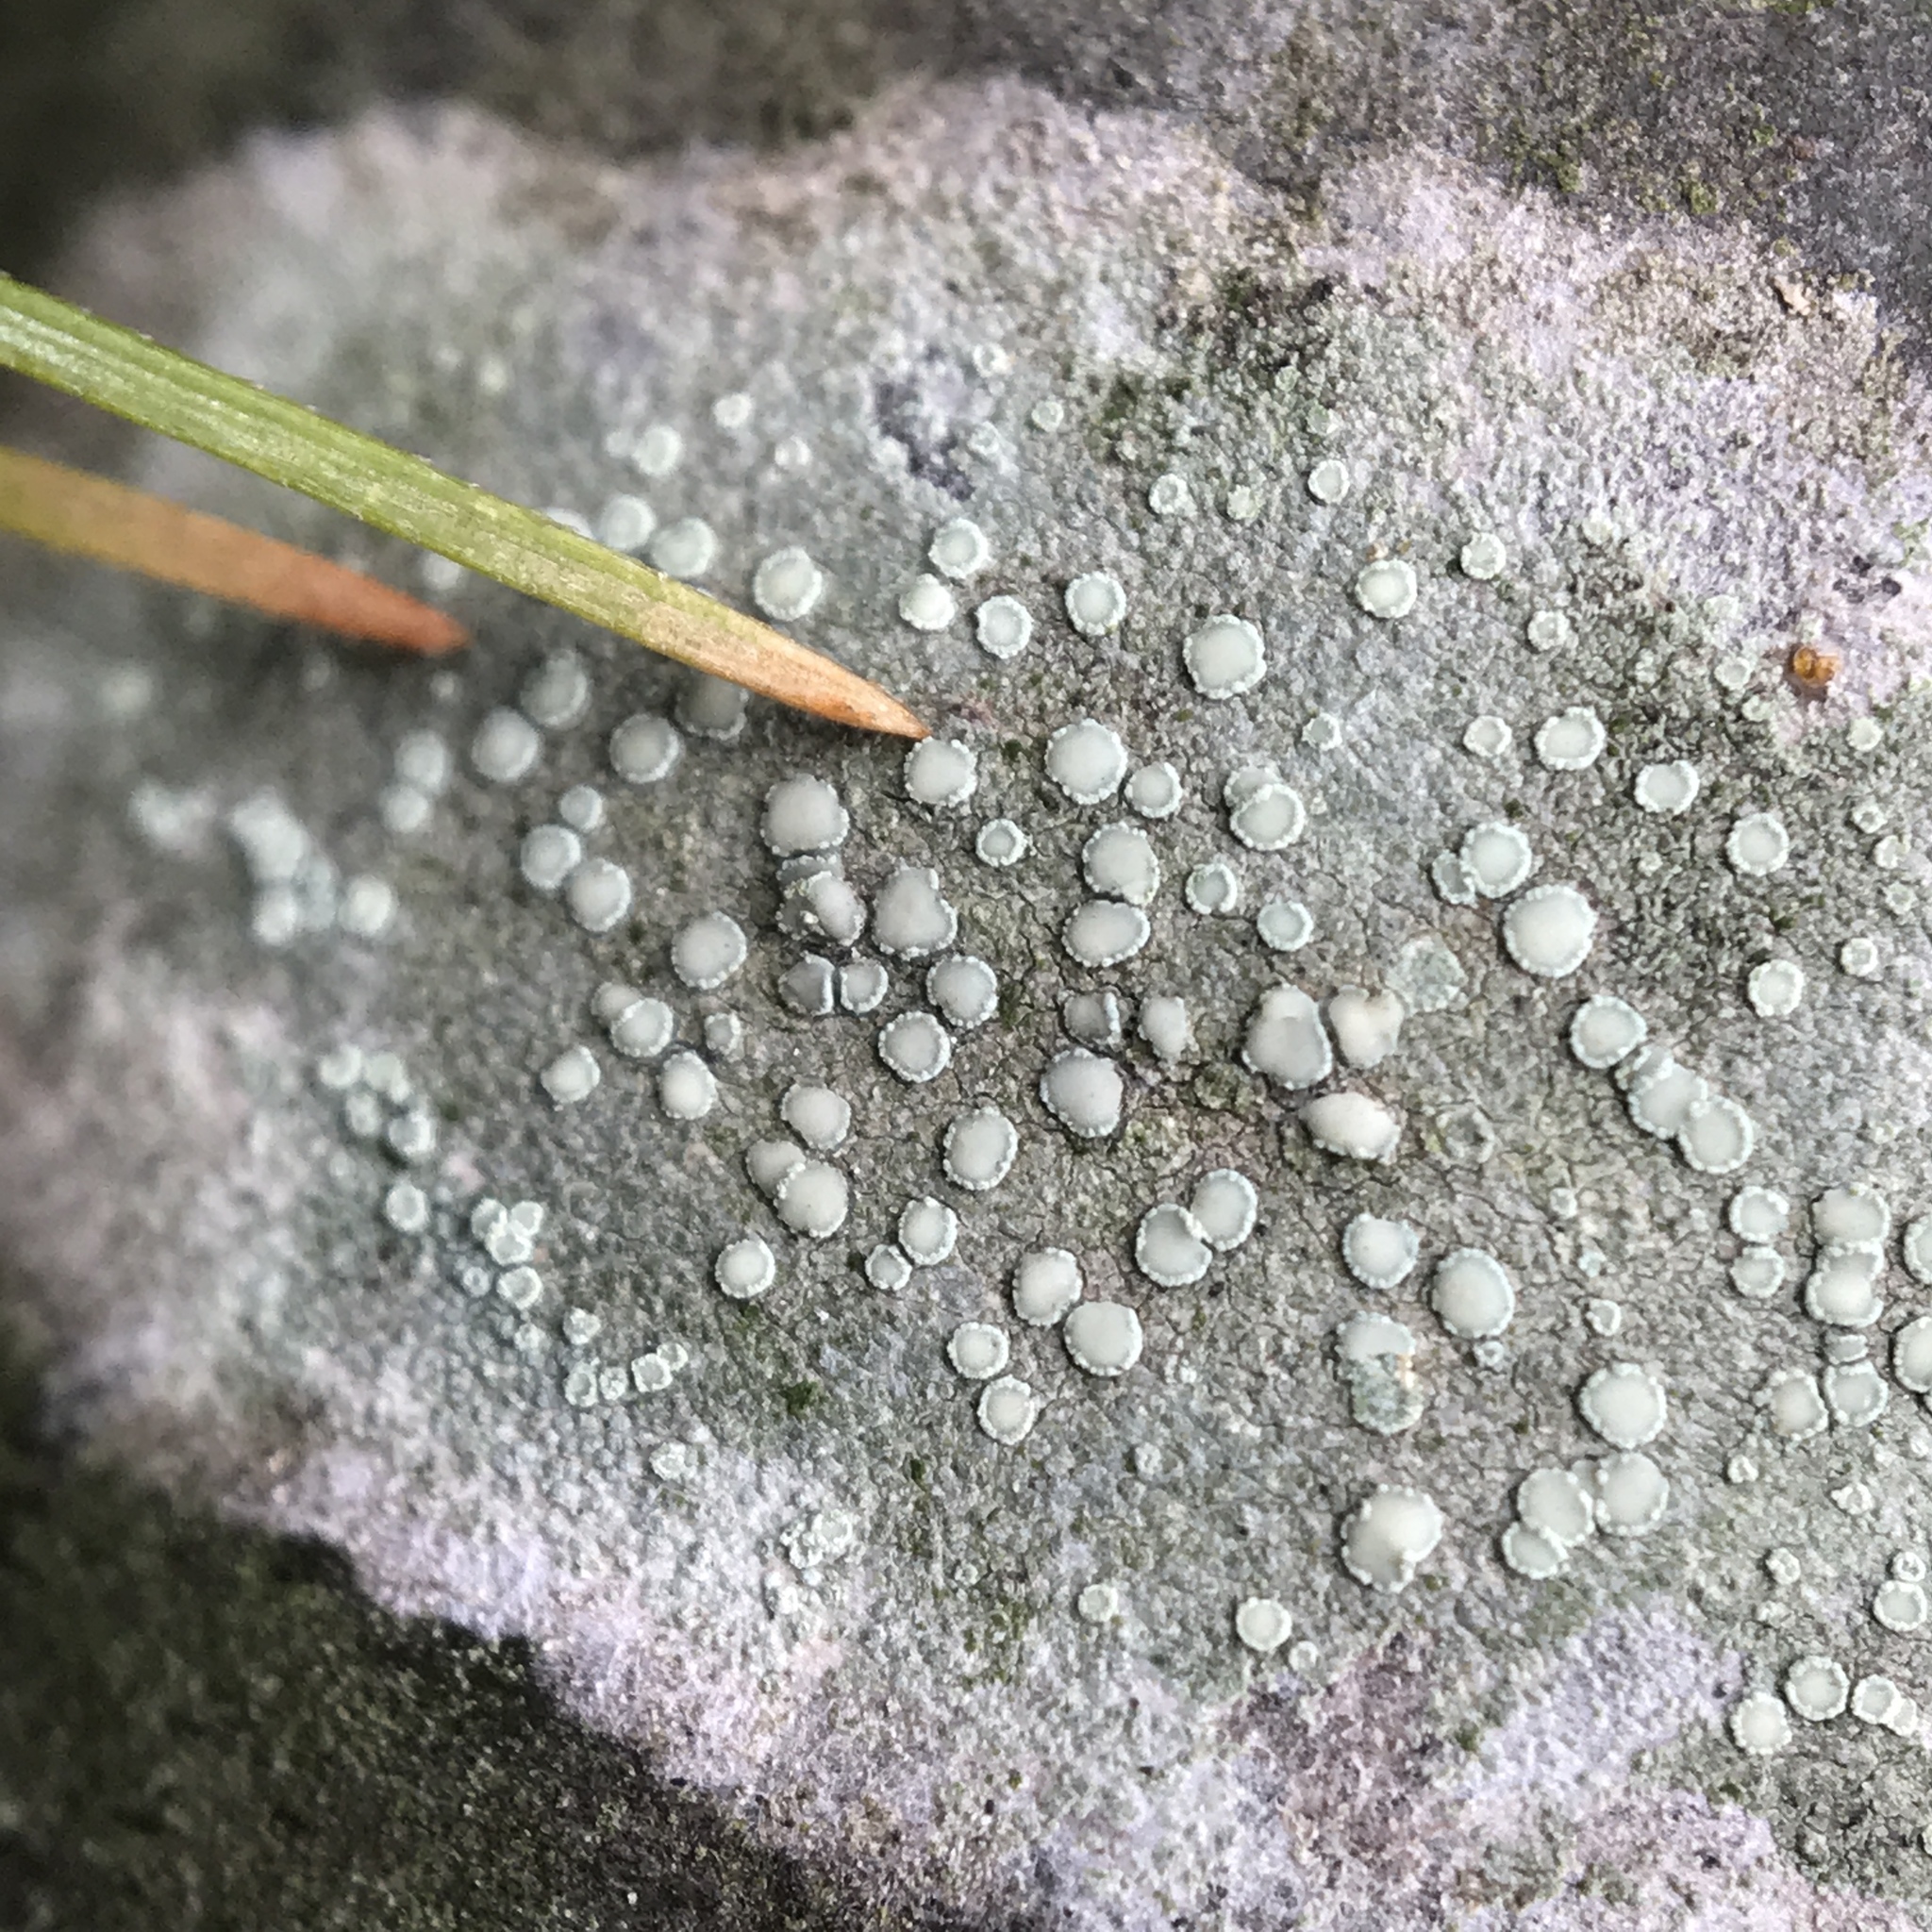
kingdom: Fungi
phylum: Ascomycota
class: Lecanoromycetes
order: Lecanorales
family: Lecanoraceae
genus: Lecanora
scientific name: Lecanora strobilina
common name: Mealy rim-lichen
